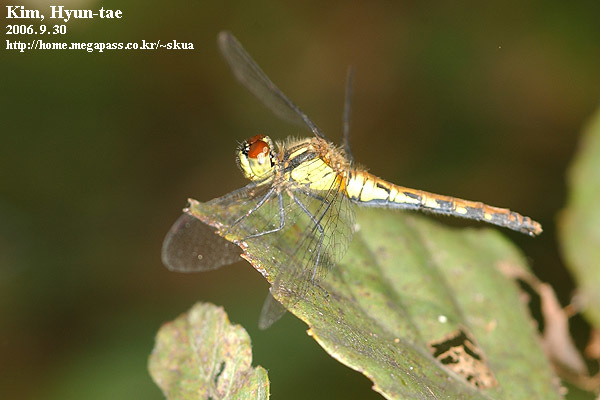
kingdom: Animalia
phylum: Arthropoda
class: Insecta
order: Odonata
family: Libellulidae
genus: Sympetrum
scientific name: Sympetrum parvulum
